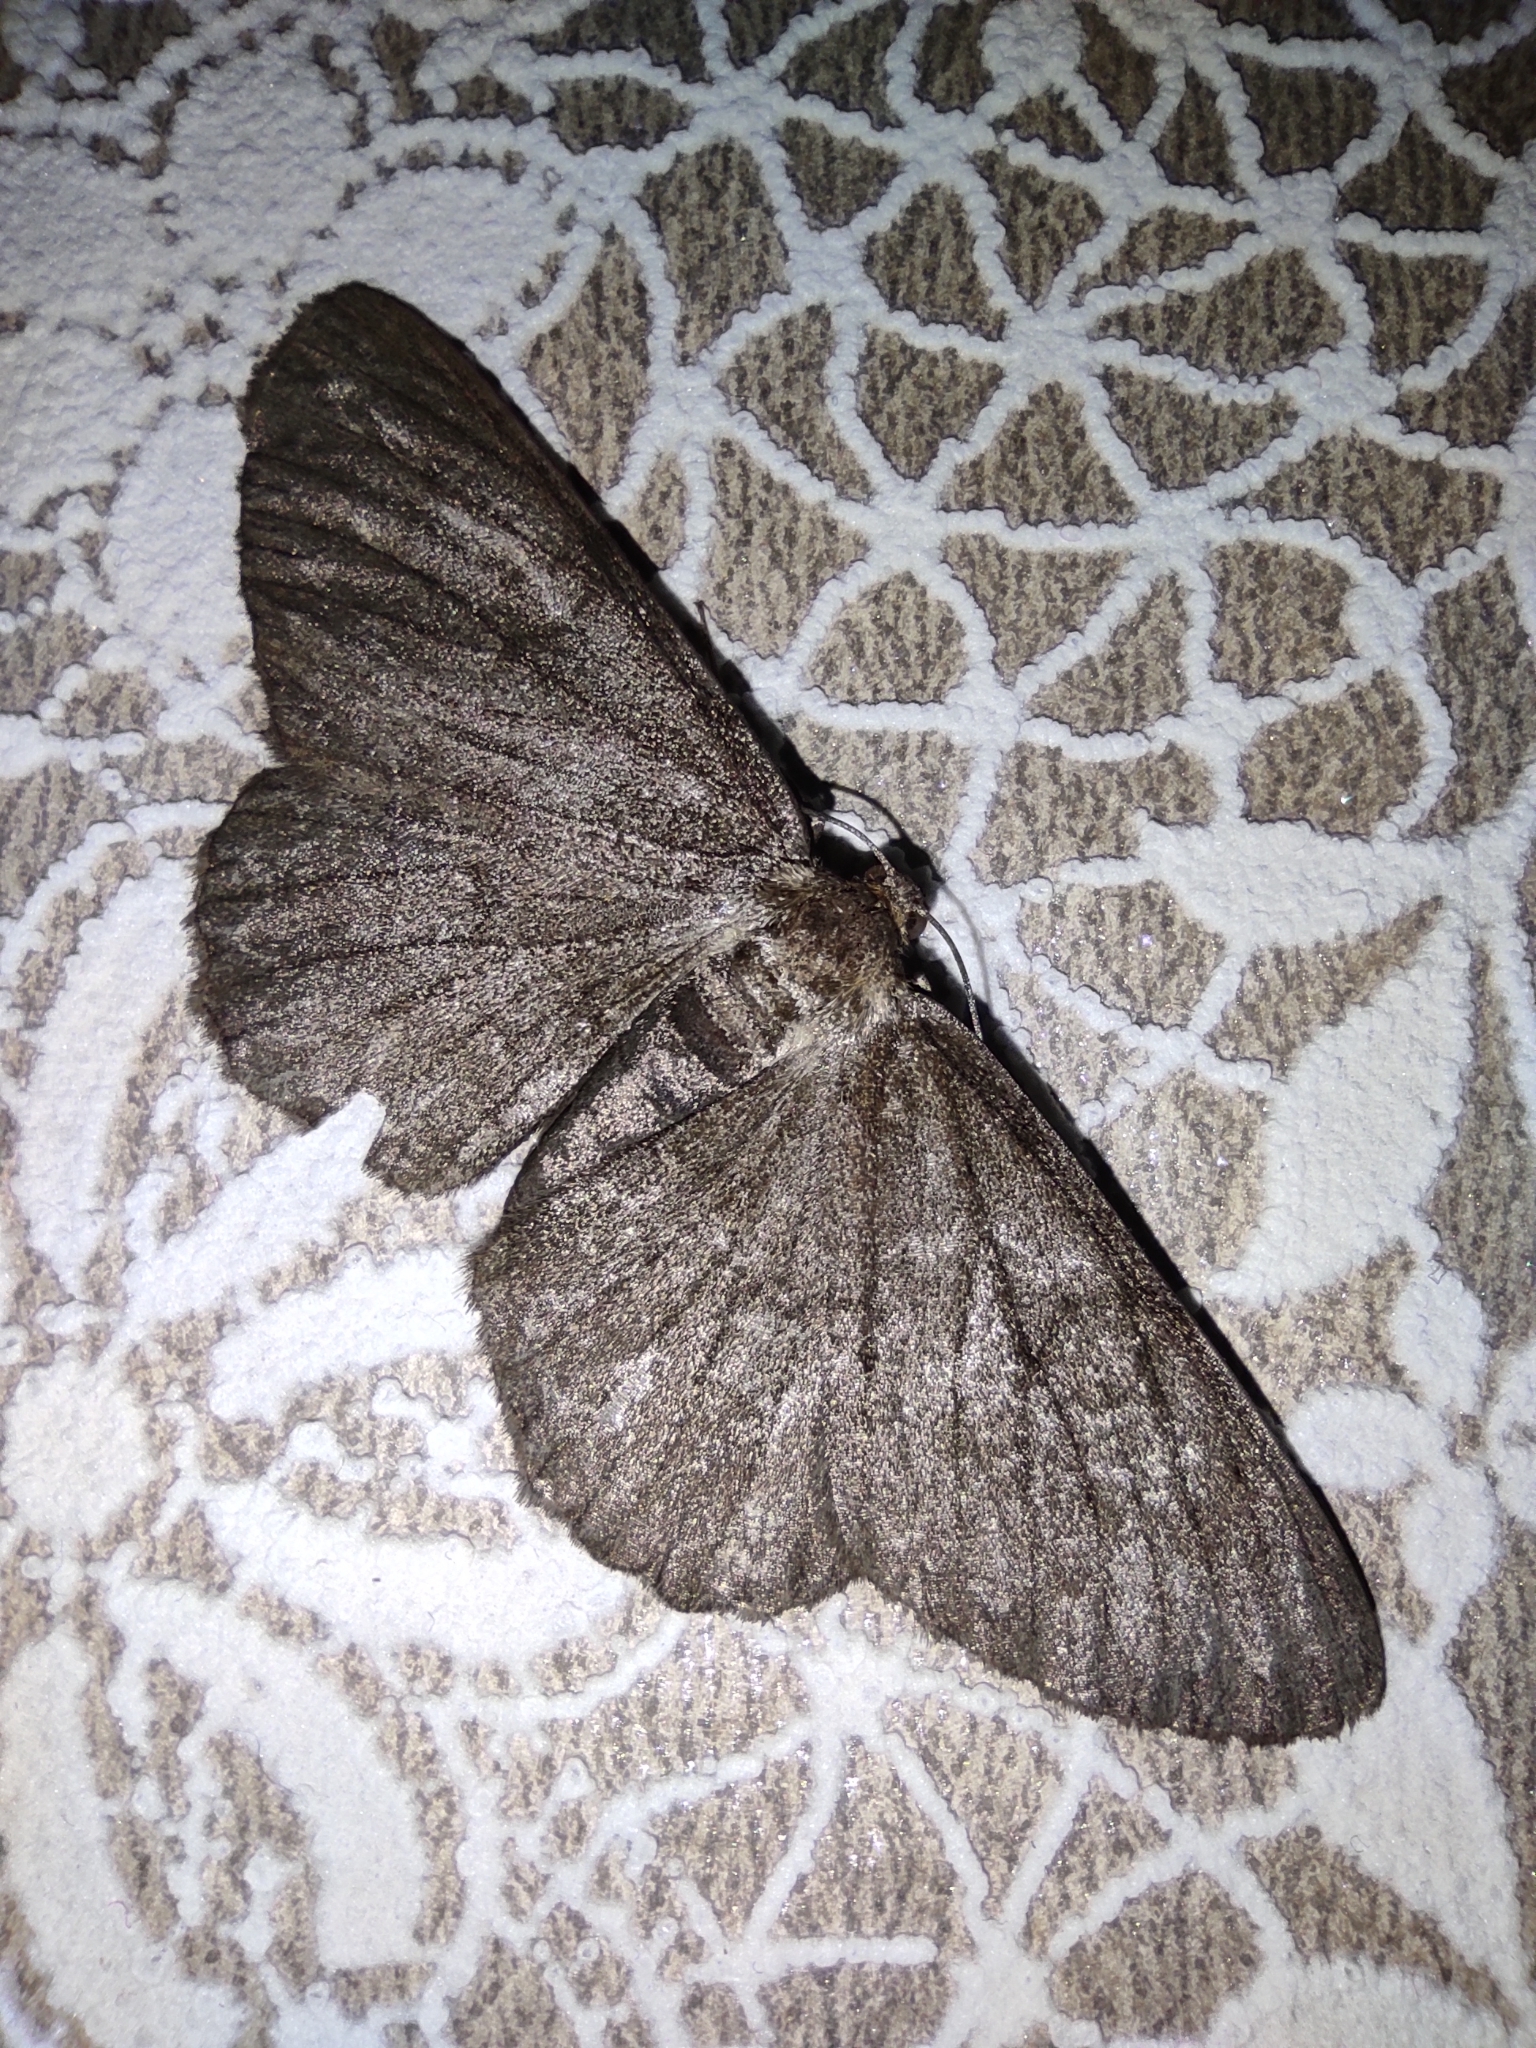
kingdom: Animalia
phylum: Arthropoda
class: Insecta
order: Lepidoptera
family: Geometridae
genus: Hypomecis
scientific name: Hypomecis punctinalis
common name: Pale oak beauty
